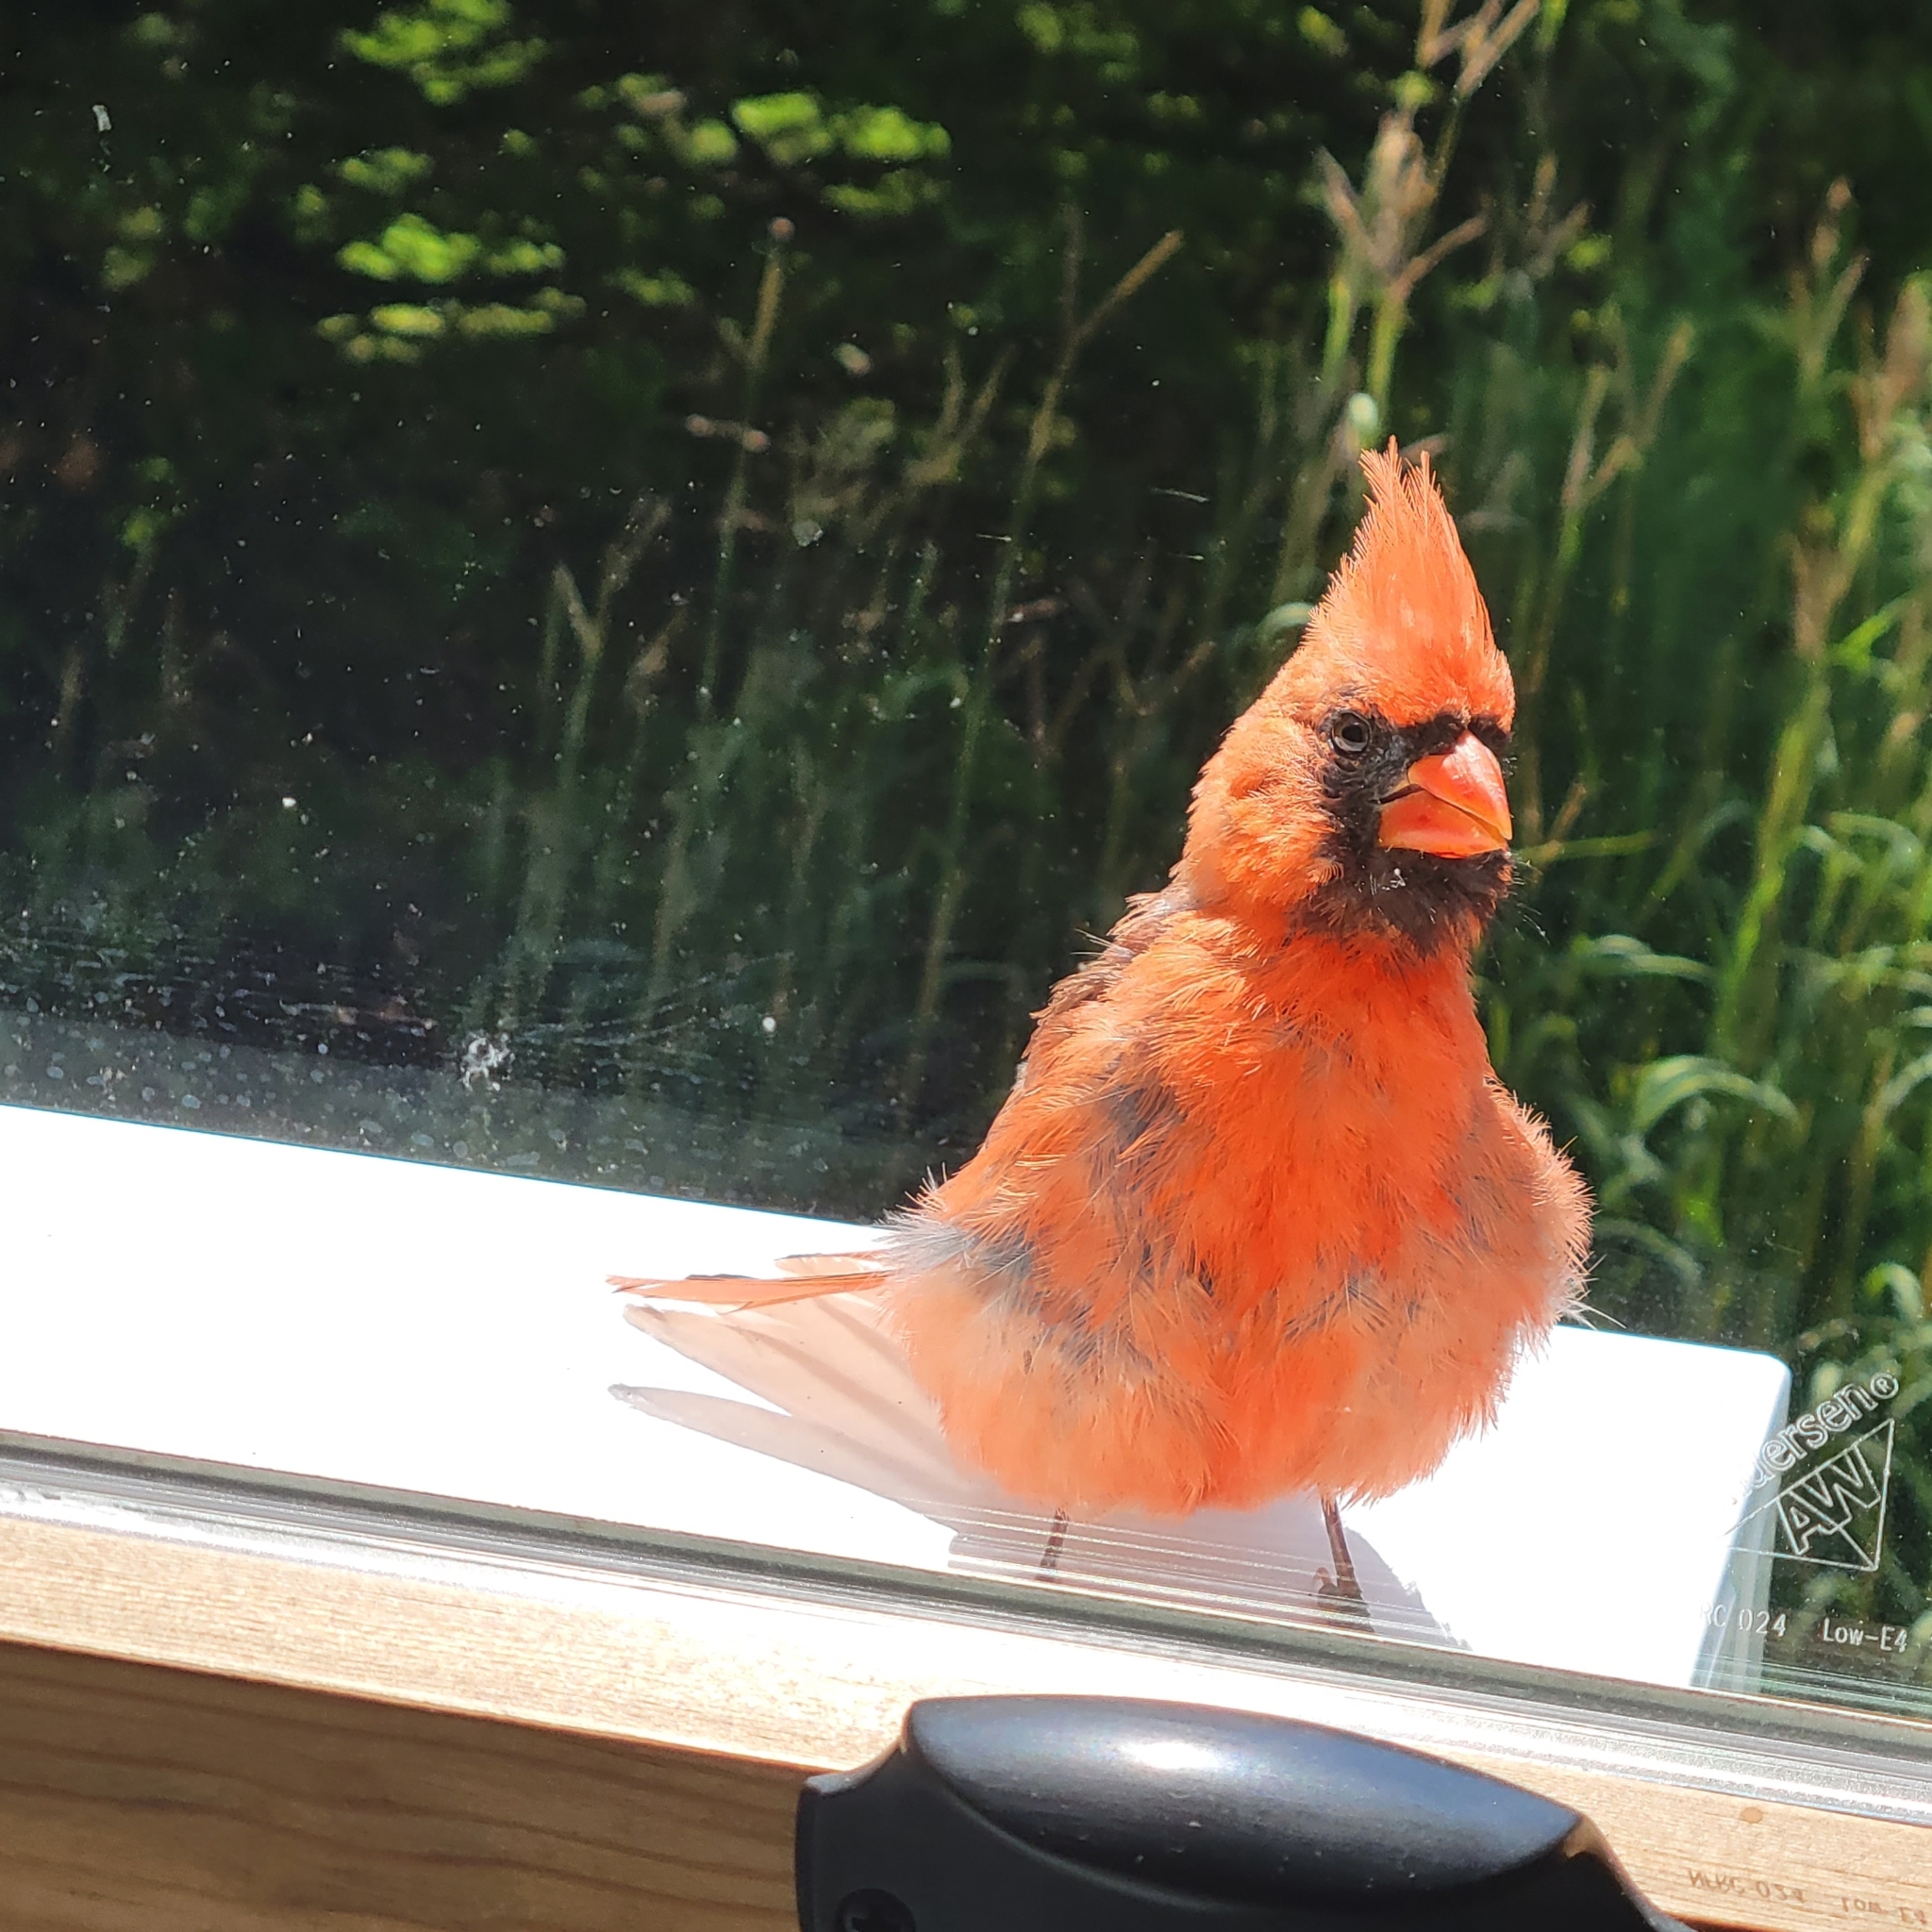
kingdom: Animalia
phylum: Chordata
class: Aves
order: Passeriformes
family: Cardinalidae
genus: Cardinalis
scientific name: Cardinalis cardinalis
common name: Northern cardinal
